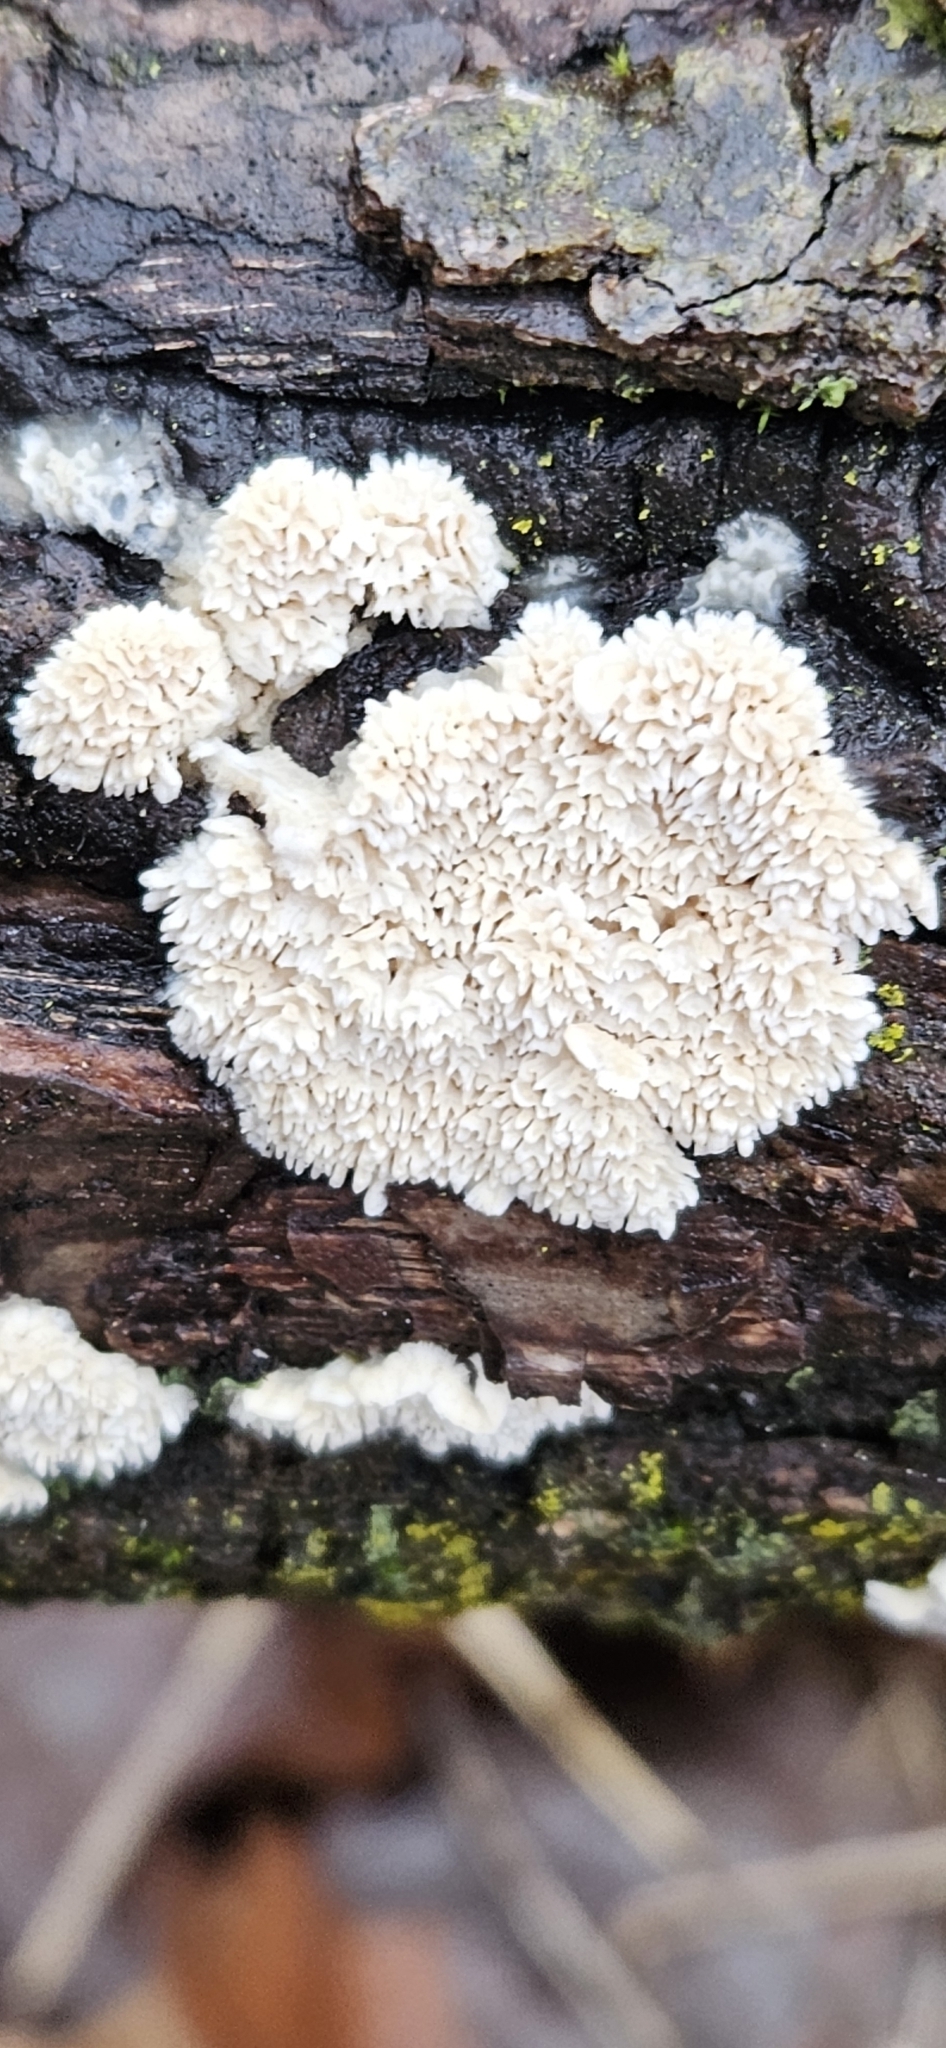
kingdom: Fungi
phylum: Basidiomycota
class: Agaricomycetes
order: Polyporales
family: Irpicaceae
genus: Irpex
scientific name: Irpex lacteus
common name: Milk-white toothed polypore
